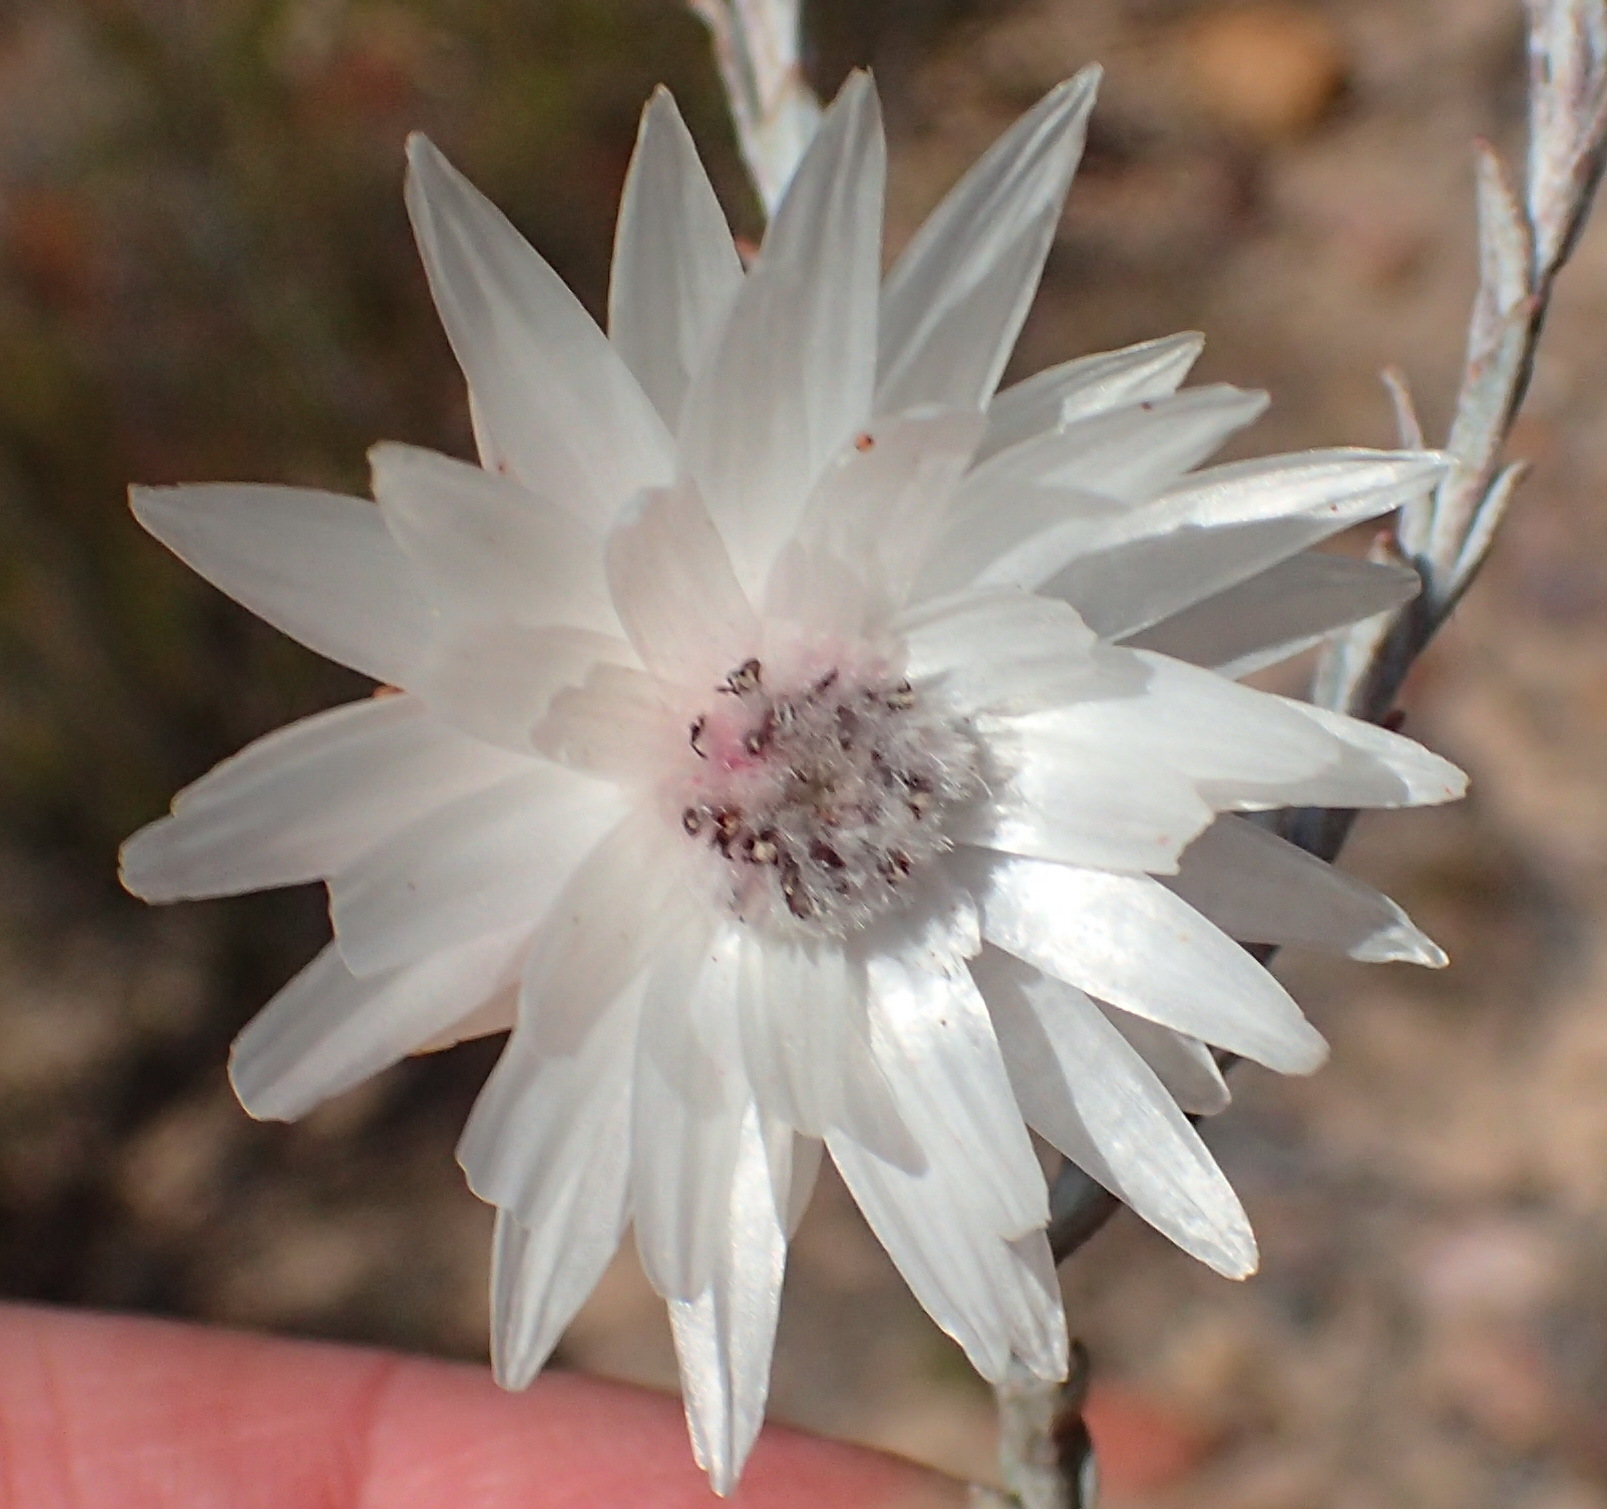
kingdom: Plantae
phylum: Tracheophyta
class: Magnoliopsida
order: Asterales
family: Asteraceae
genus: Syncarpha
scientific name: Syncarpha canescens
